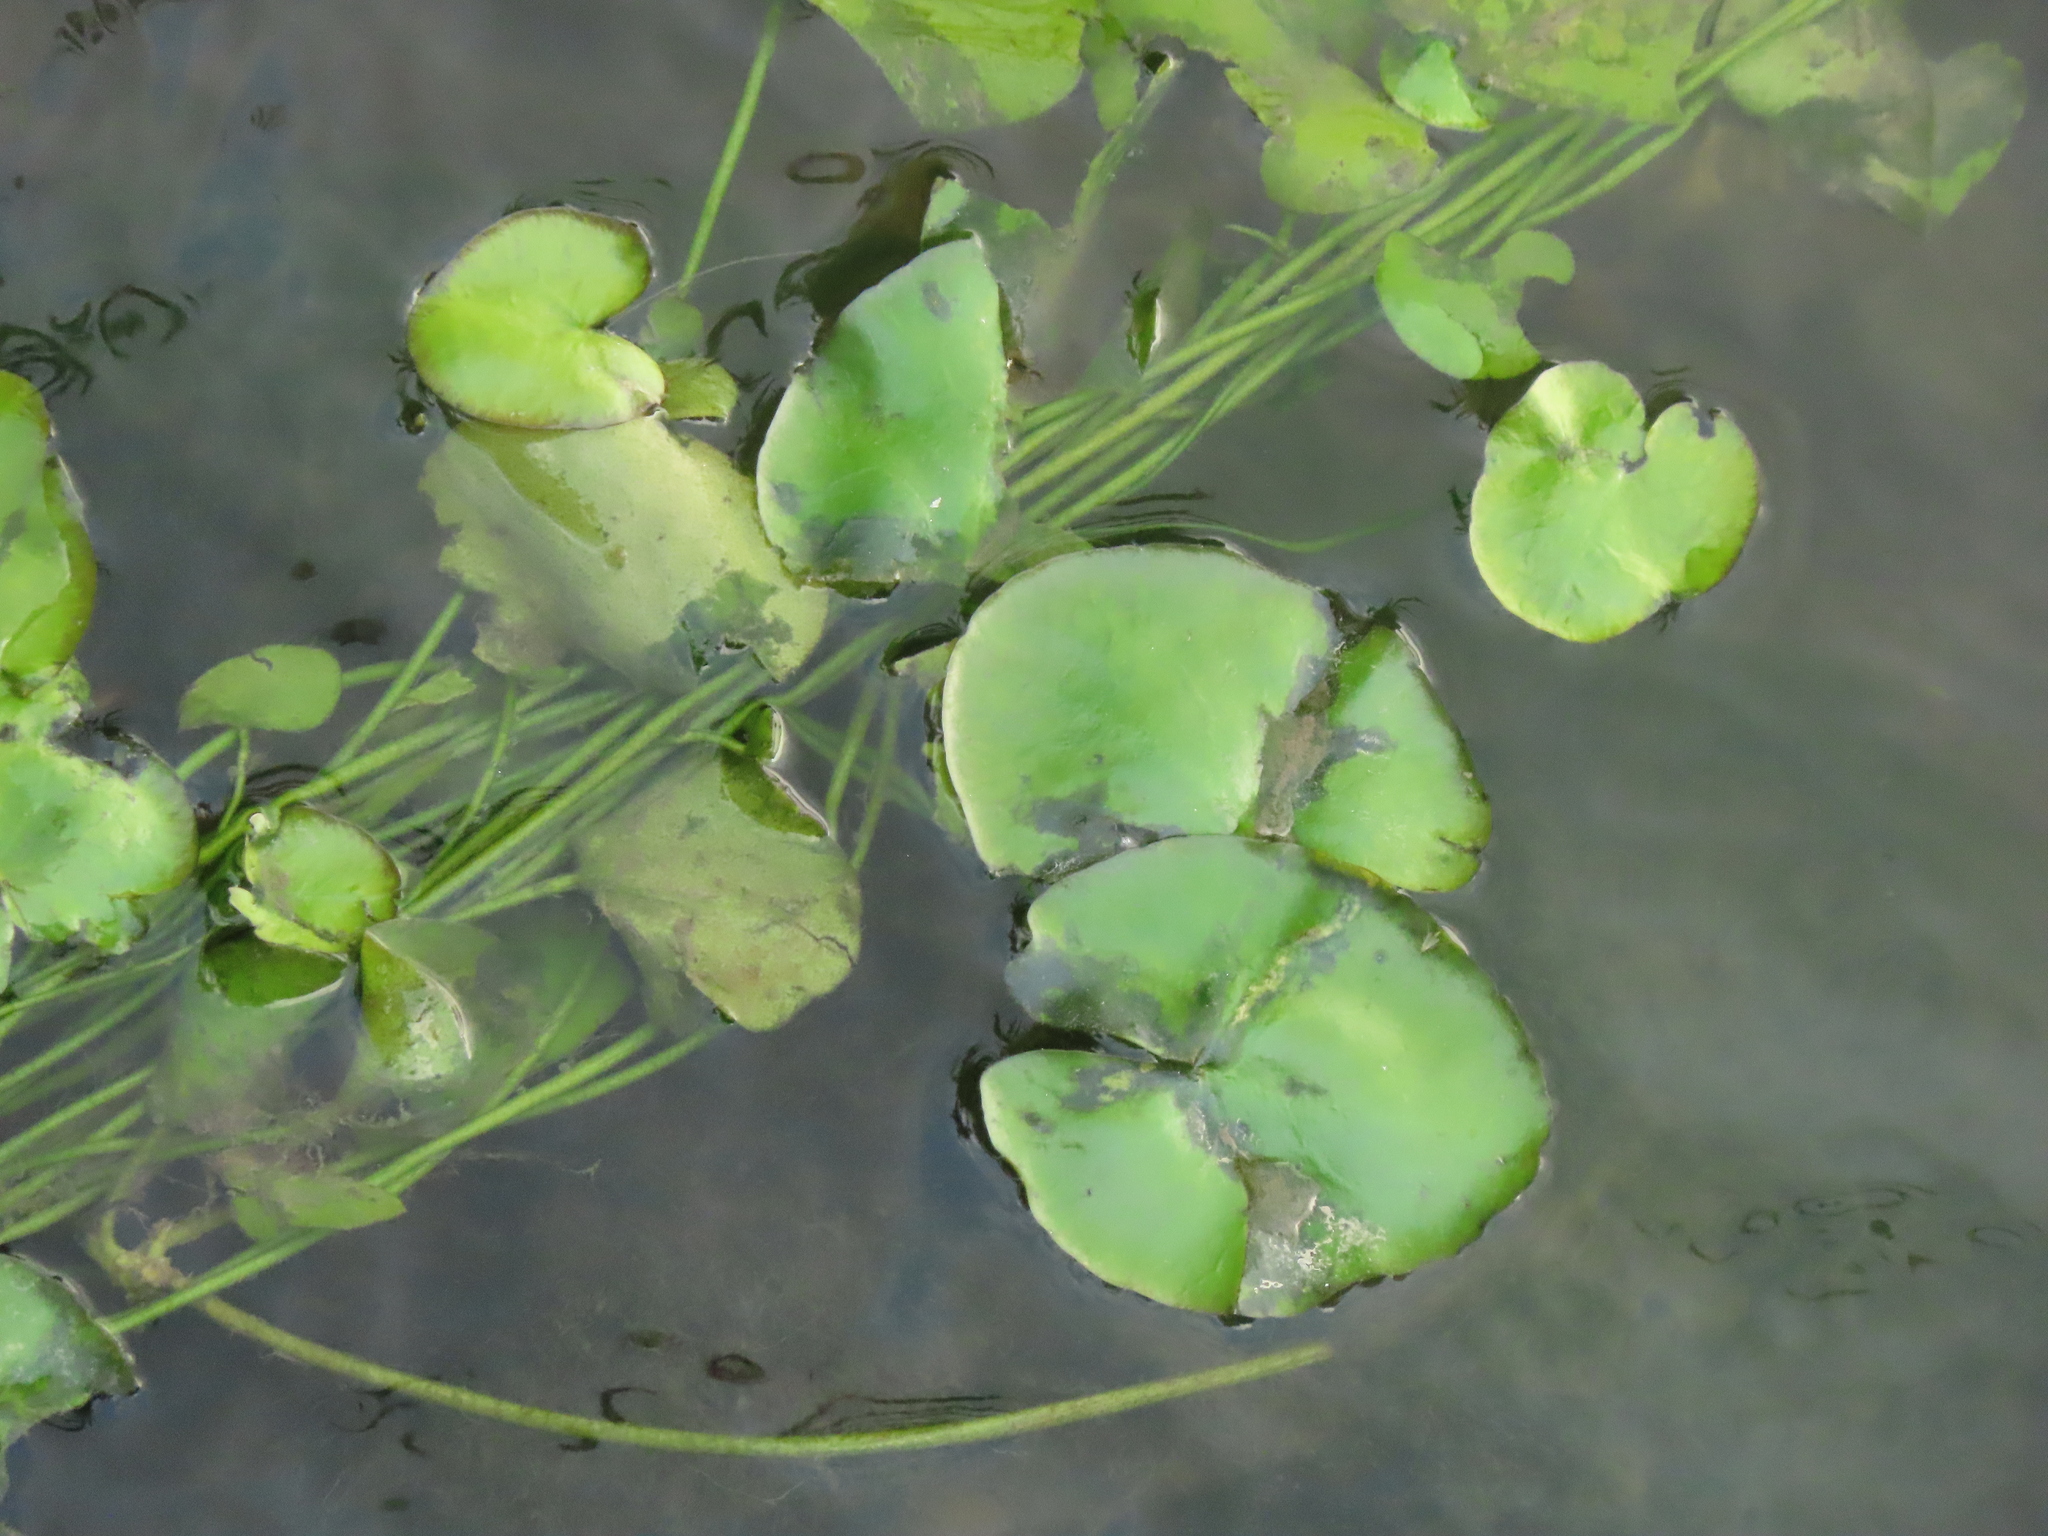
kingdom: Plantae
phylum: Tracheophyta
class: Magnoliopsida
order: Asterales
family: Menyanthaceae
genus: Nymphoides
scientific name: Nymphoides hydrophylla
